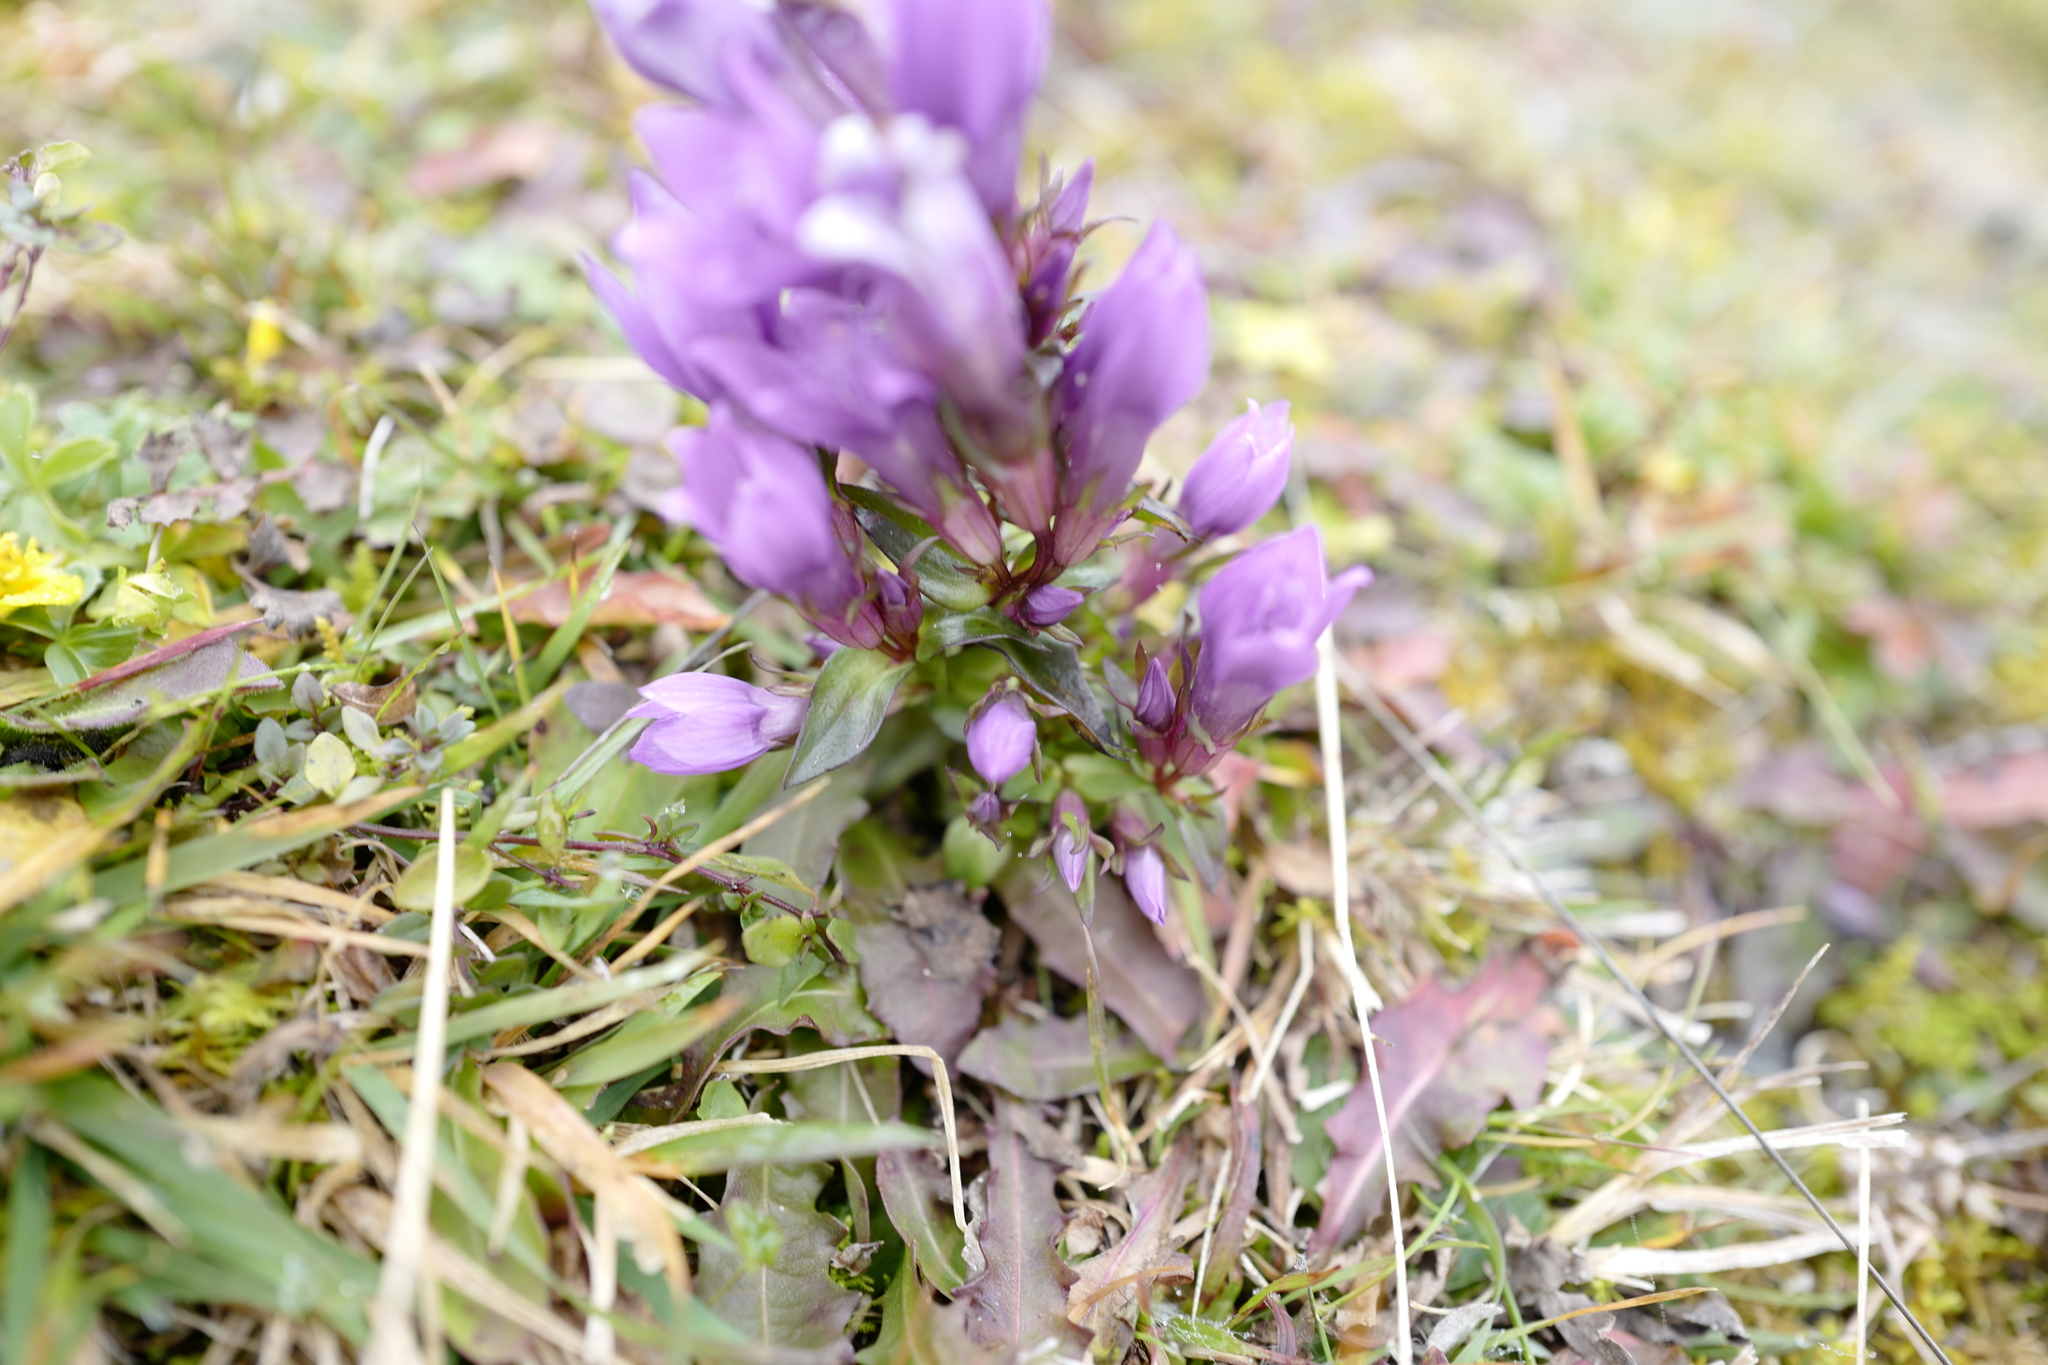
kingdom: Plantae
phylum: Tracheophyta
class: Magnoliopsida
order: Gentianales
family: Gentianaceae
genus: Gentianella
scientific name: Gentianella styriaca
